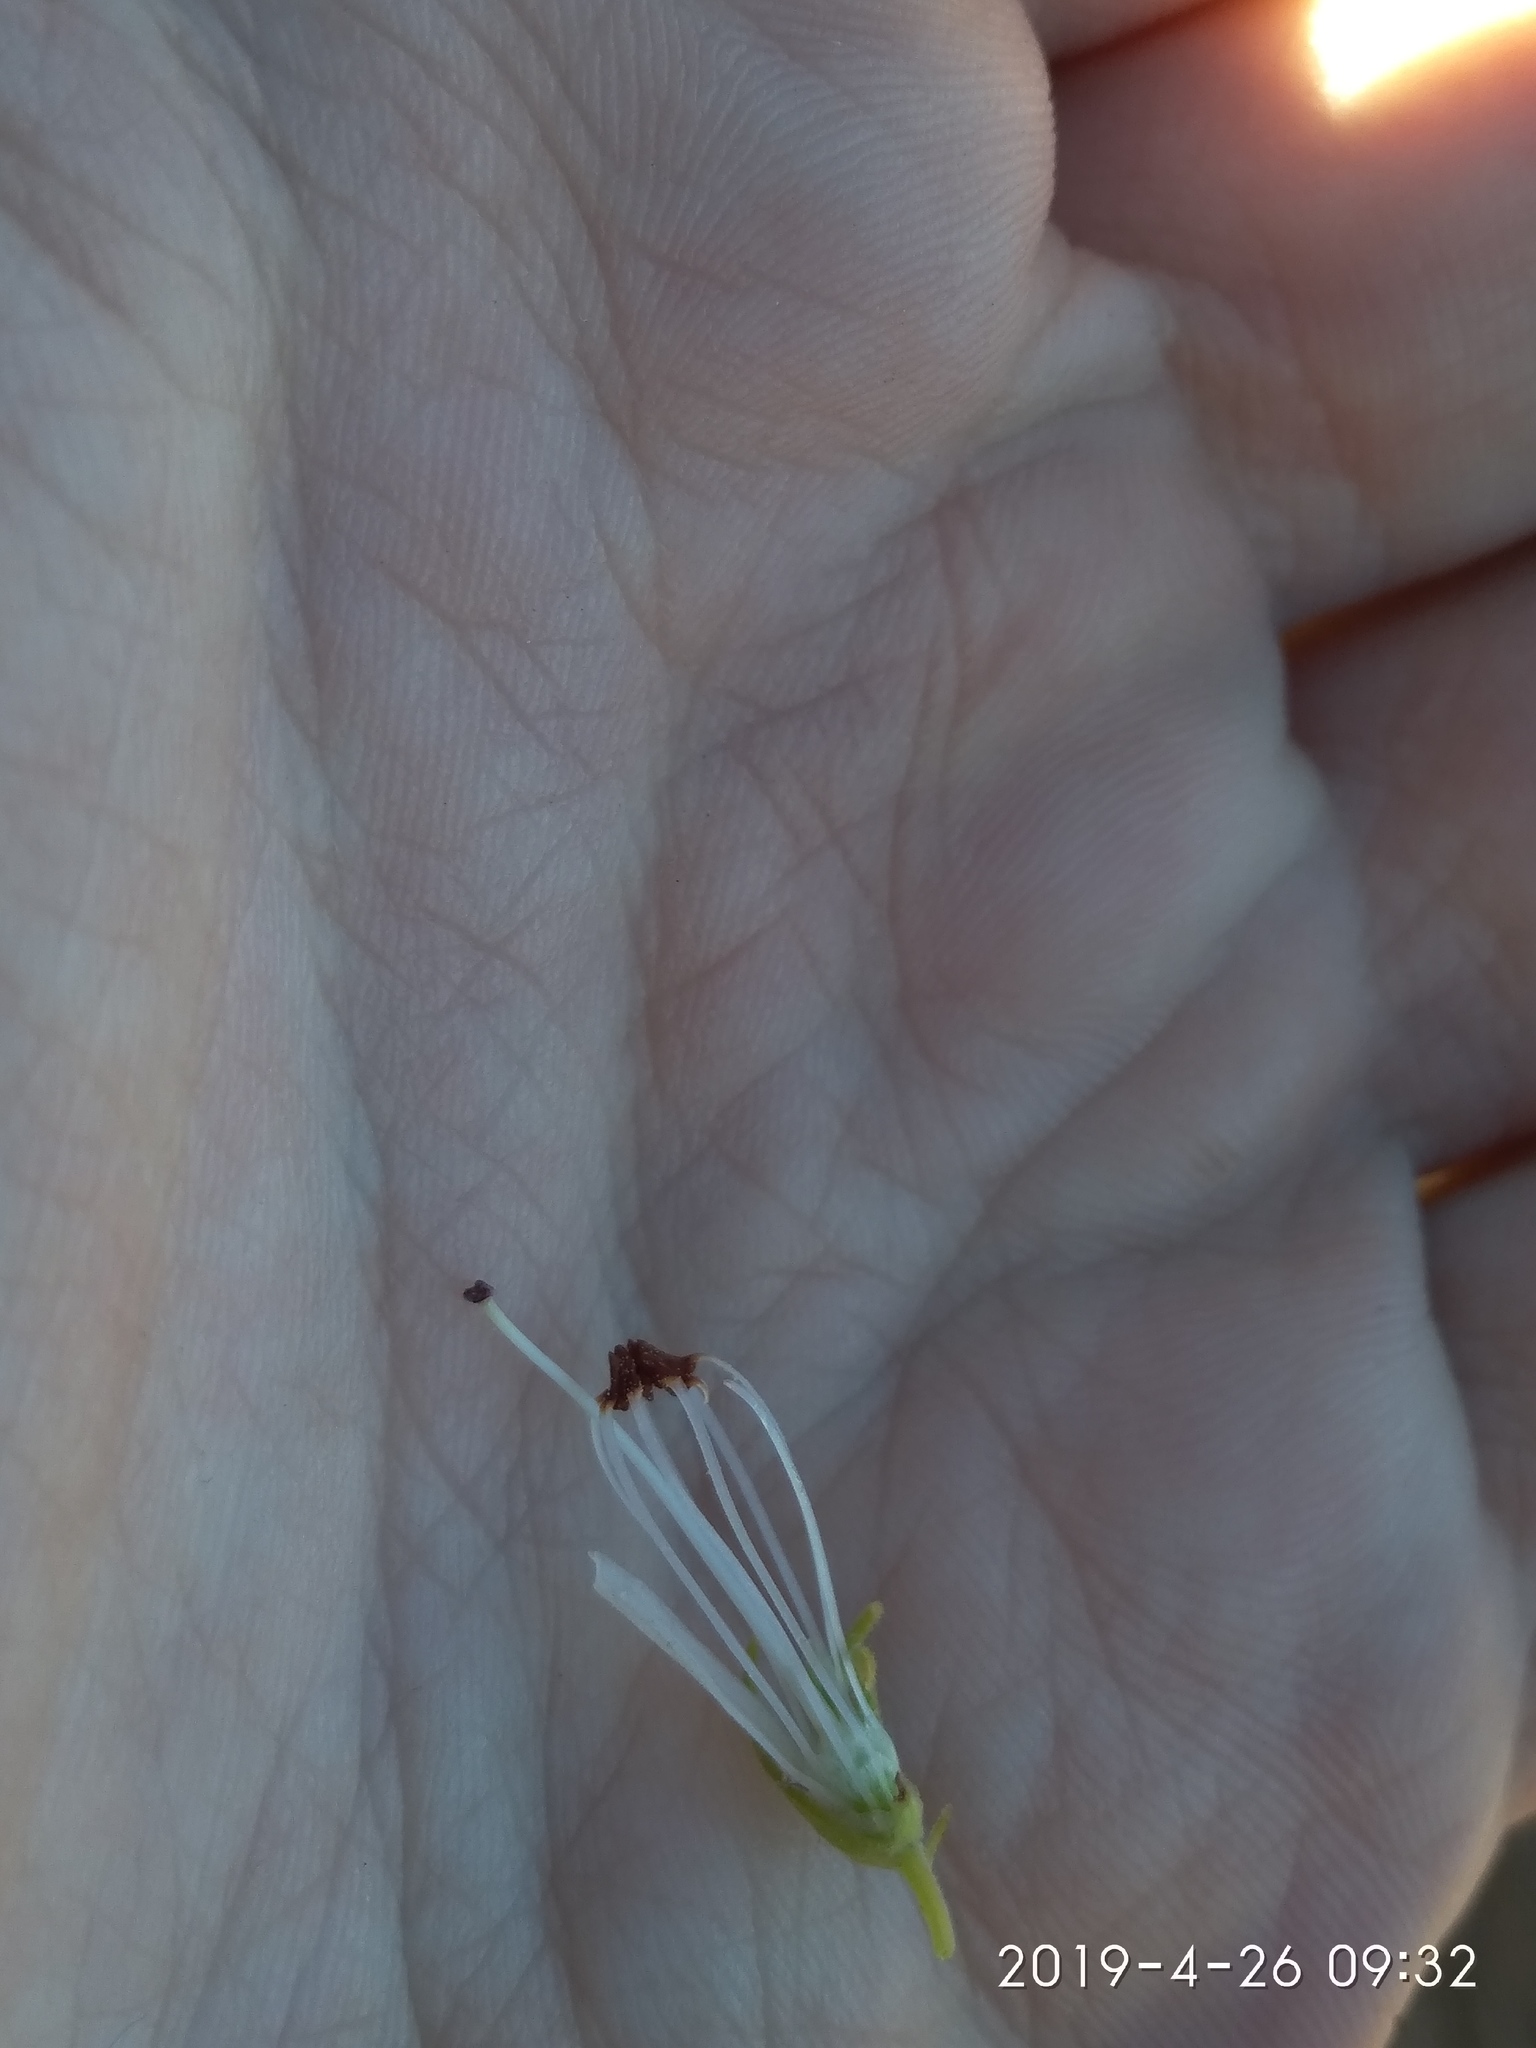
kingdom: Plantae
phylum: Tracheophyta
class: Magnoliopsida
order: Ericales
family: Ericaceae
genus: Erica
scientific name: Erica viscaria
